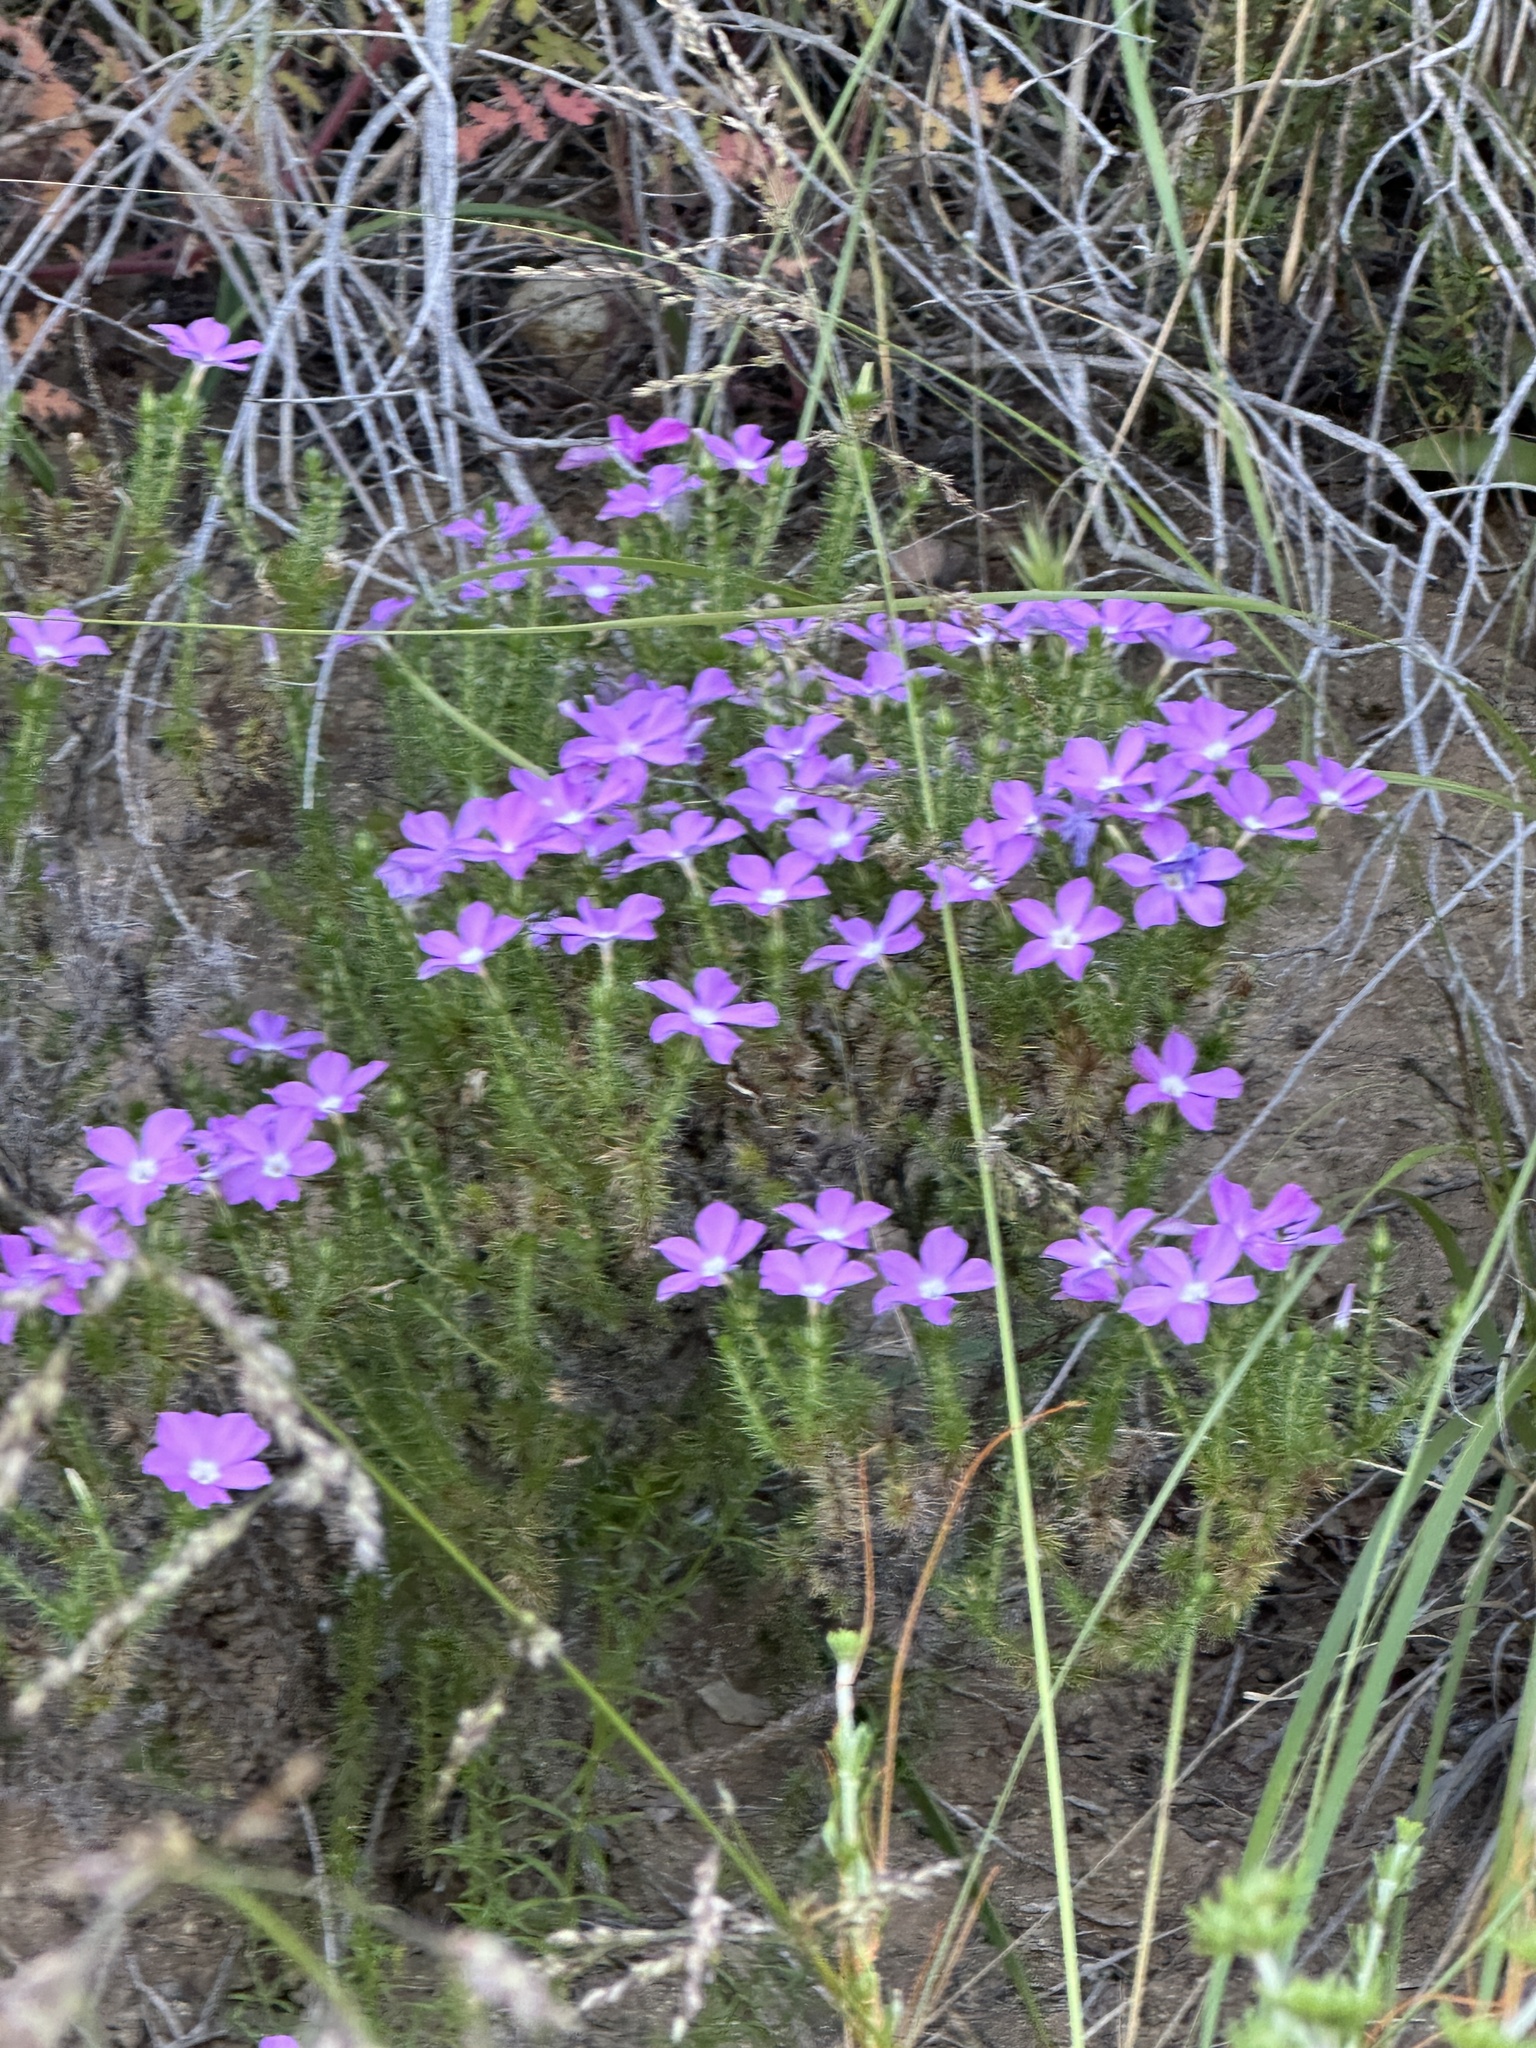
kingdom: Plantae
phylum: Tracheophyta
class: Magnoliopsida
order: Ericales
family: Polemoniaceae
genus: Linanthus
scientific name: Linanthus californicus
